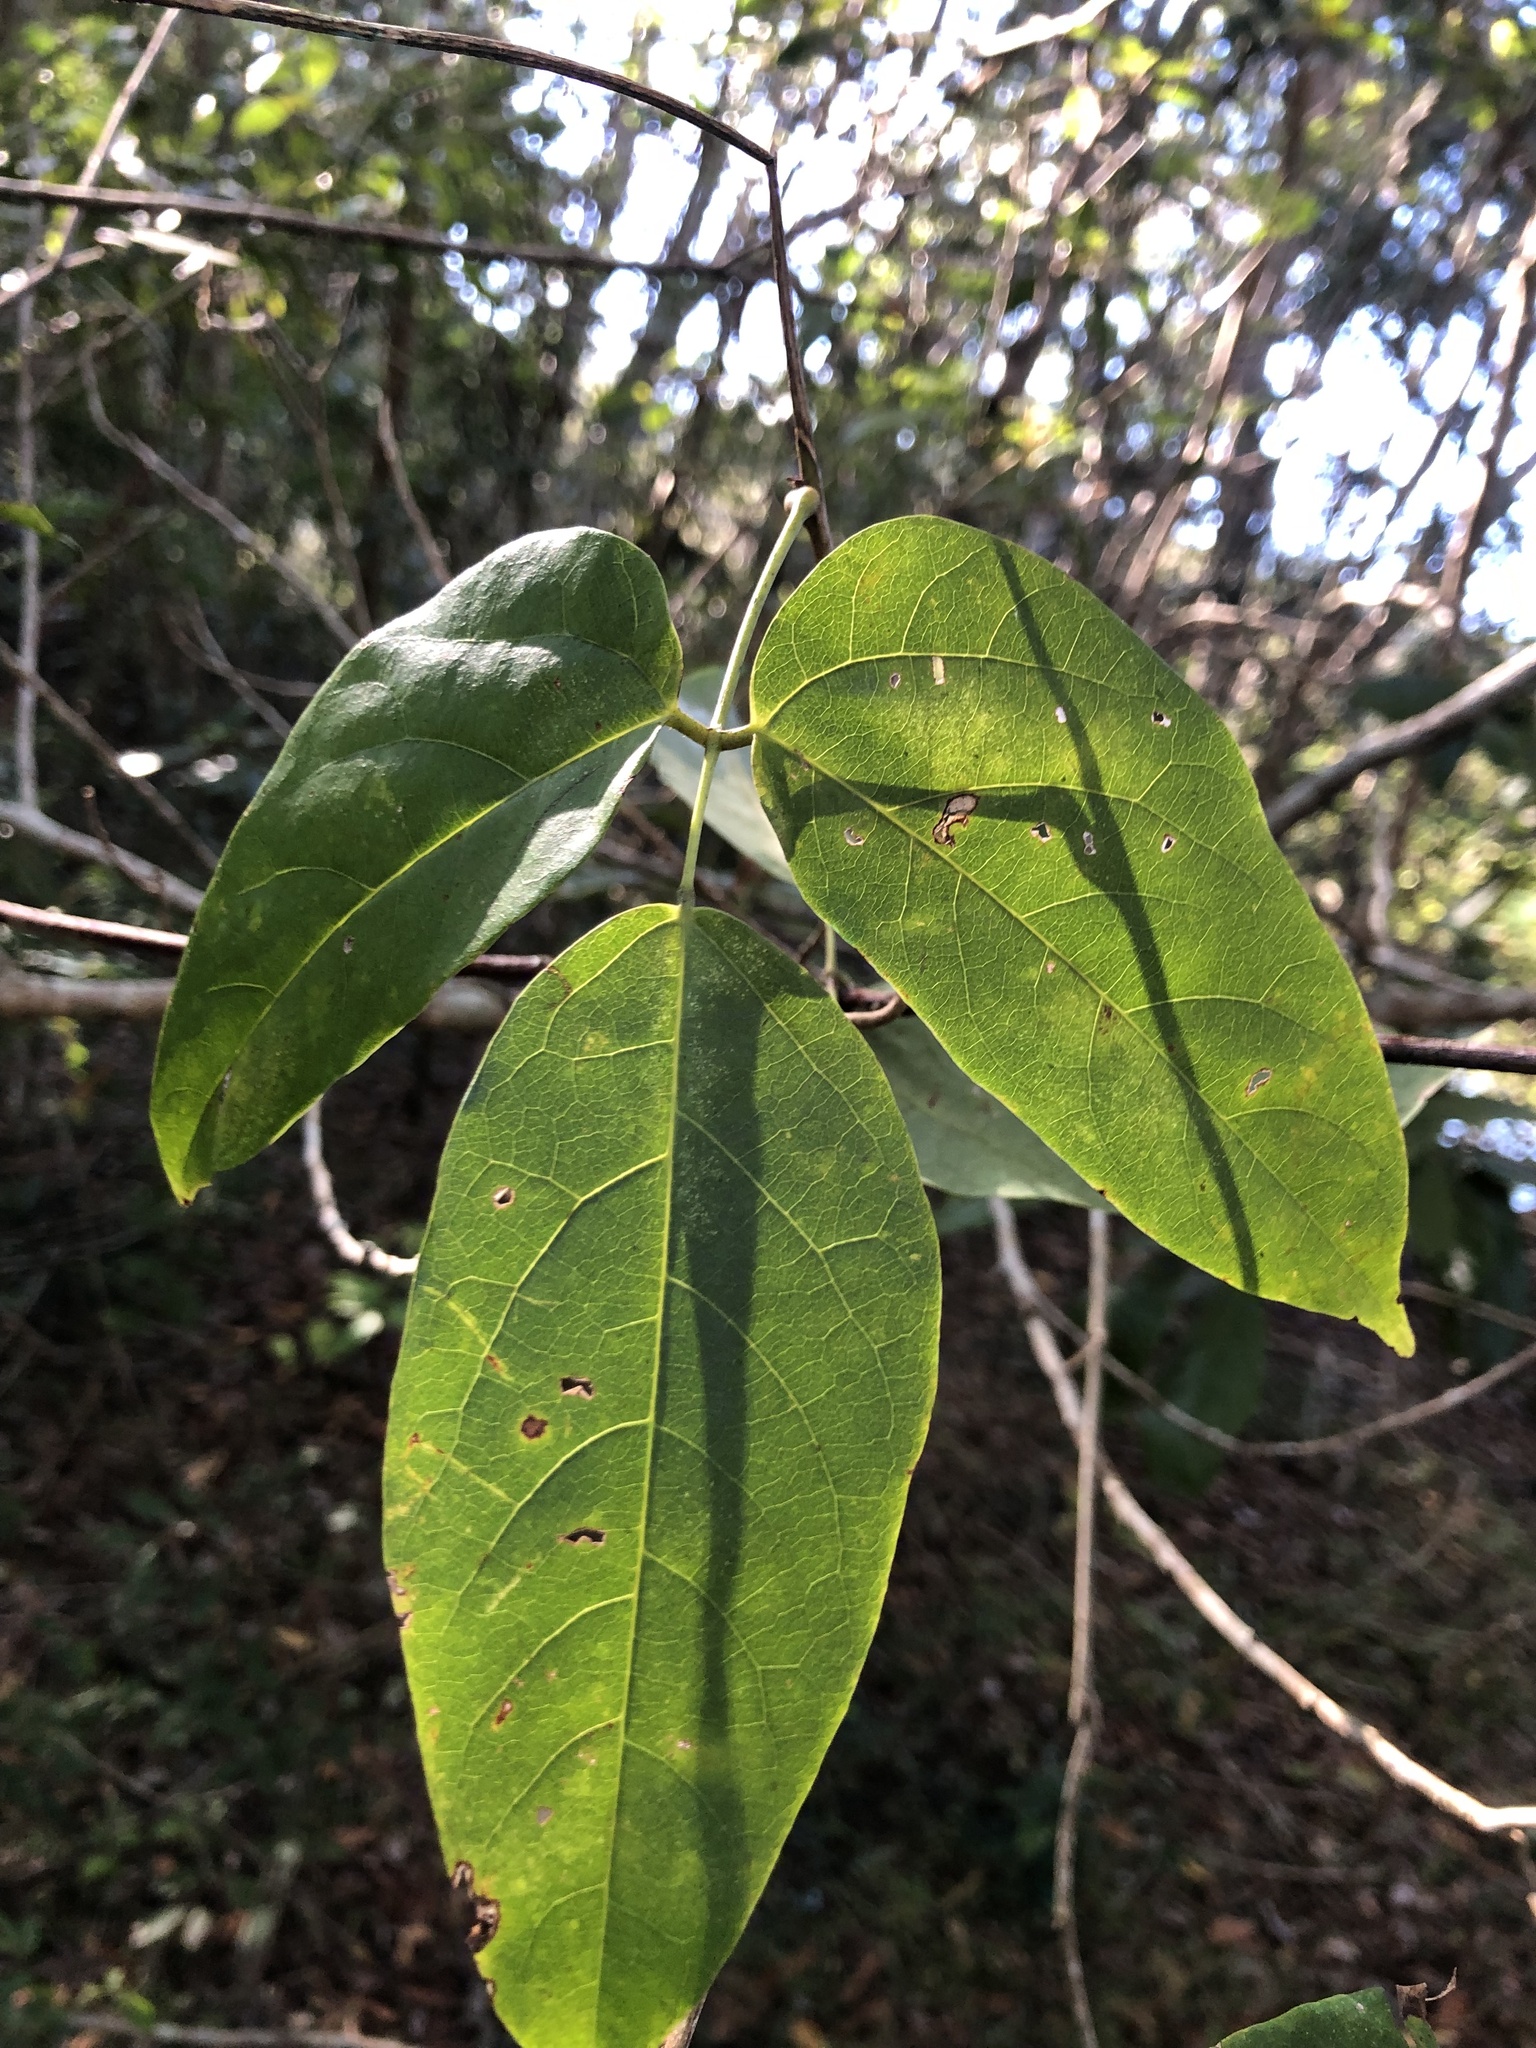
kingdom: Plantae
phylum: Tracheophyta
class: Magnoliopsida
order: Fabales
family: Fabaceae
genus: Mucuna
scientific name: Mucuna gigantea
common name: Black-bean
